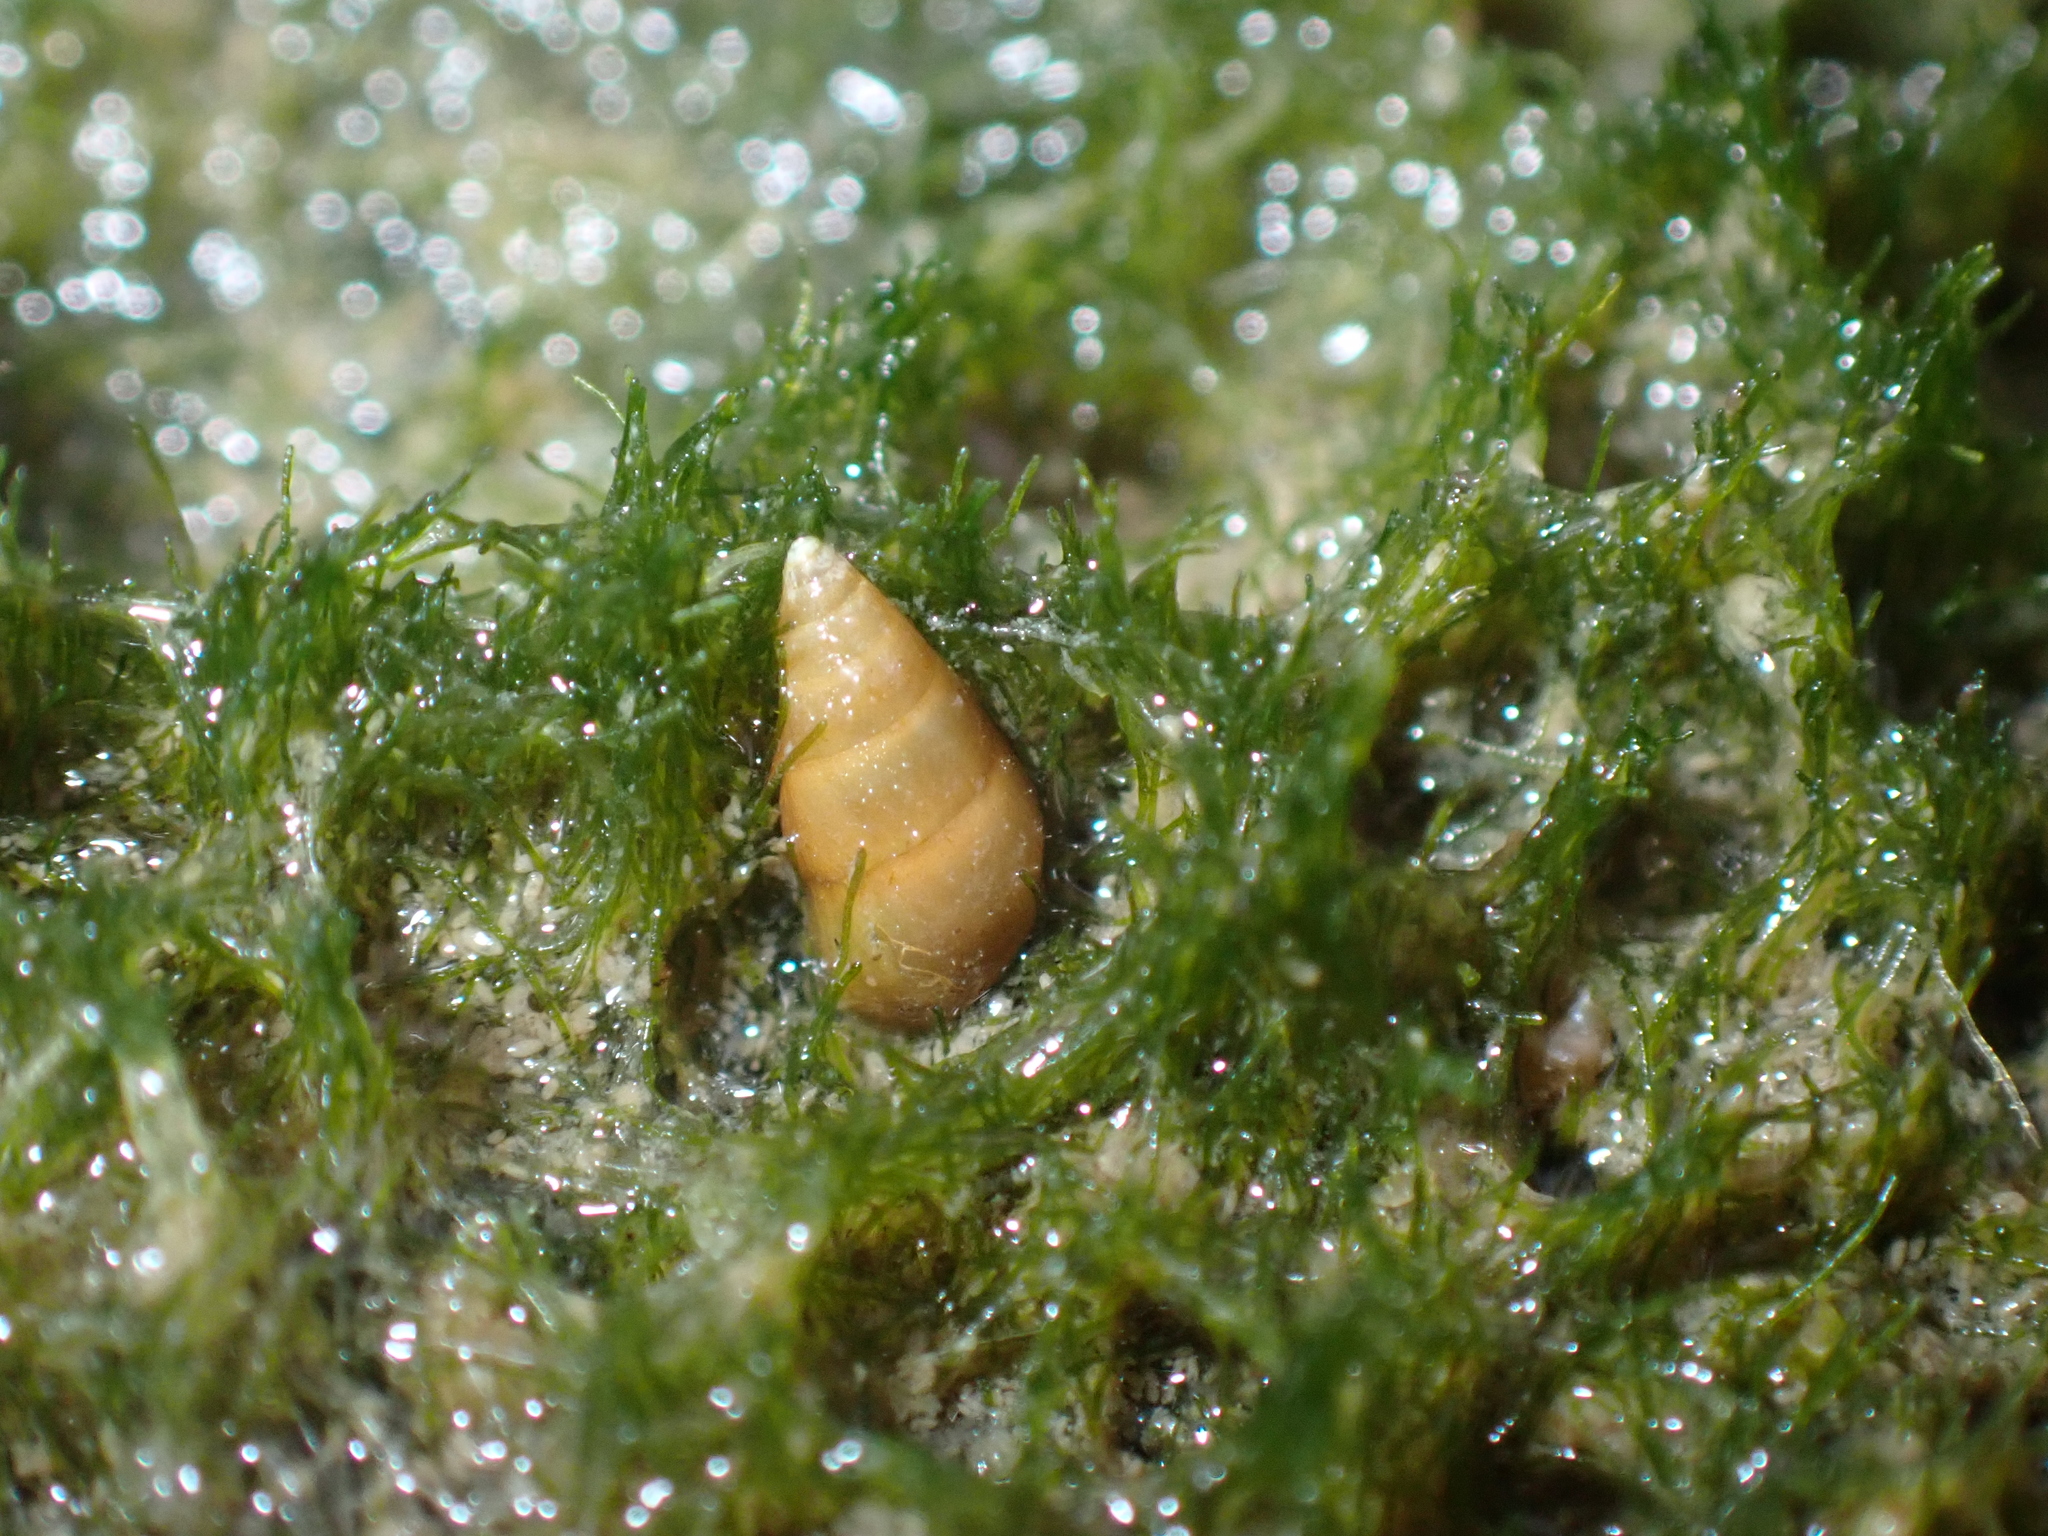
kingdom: Animalia
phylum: Mollusca
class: Gastropoda
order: Littorinimorpha
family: Hydrobiidae
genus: Peringia
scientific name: Peringia ulvae
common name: Laver spire shell
